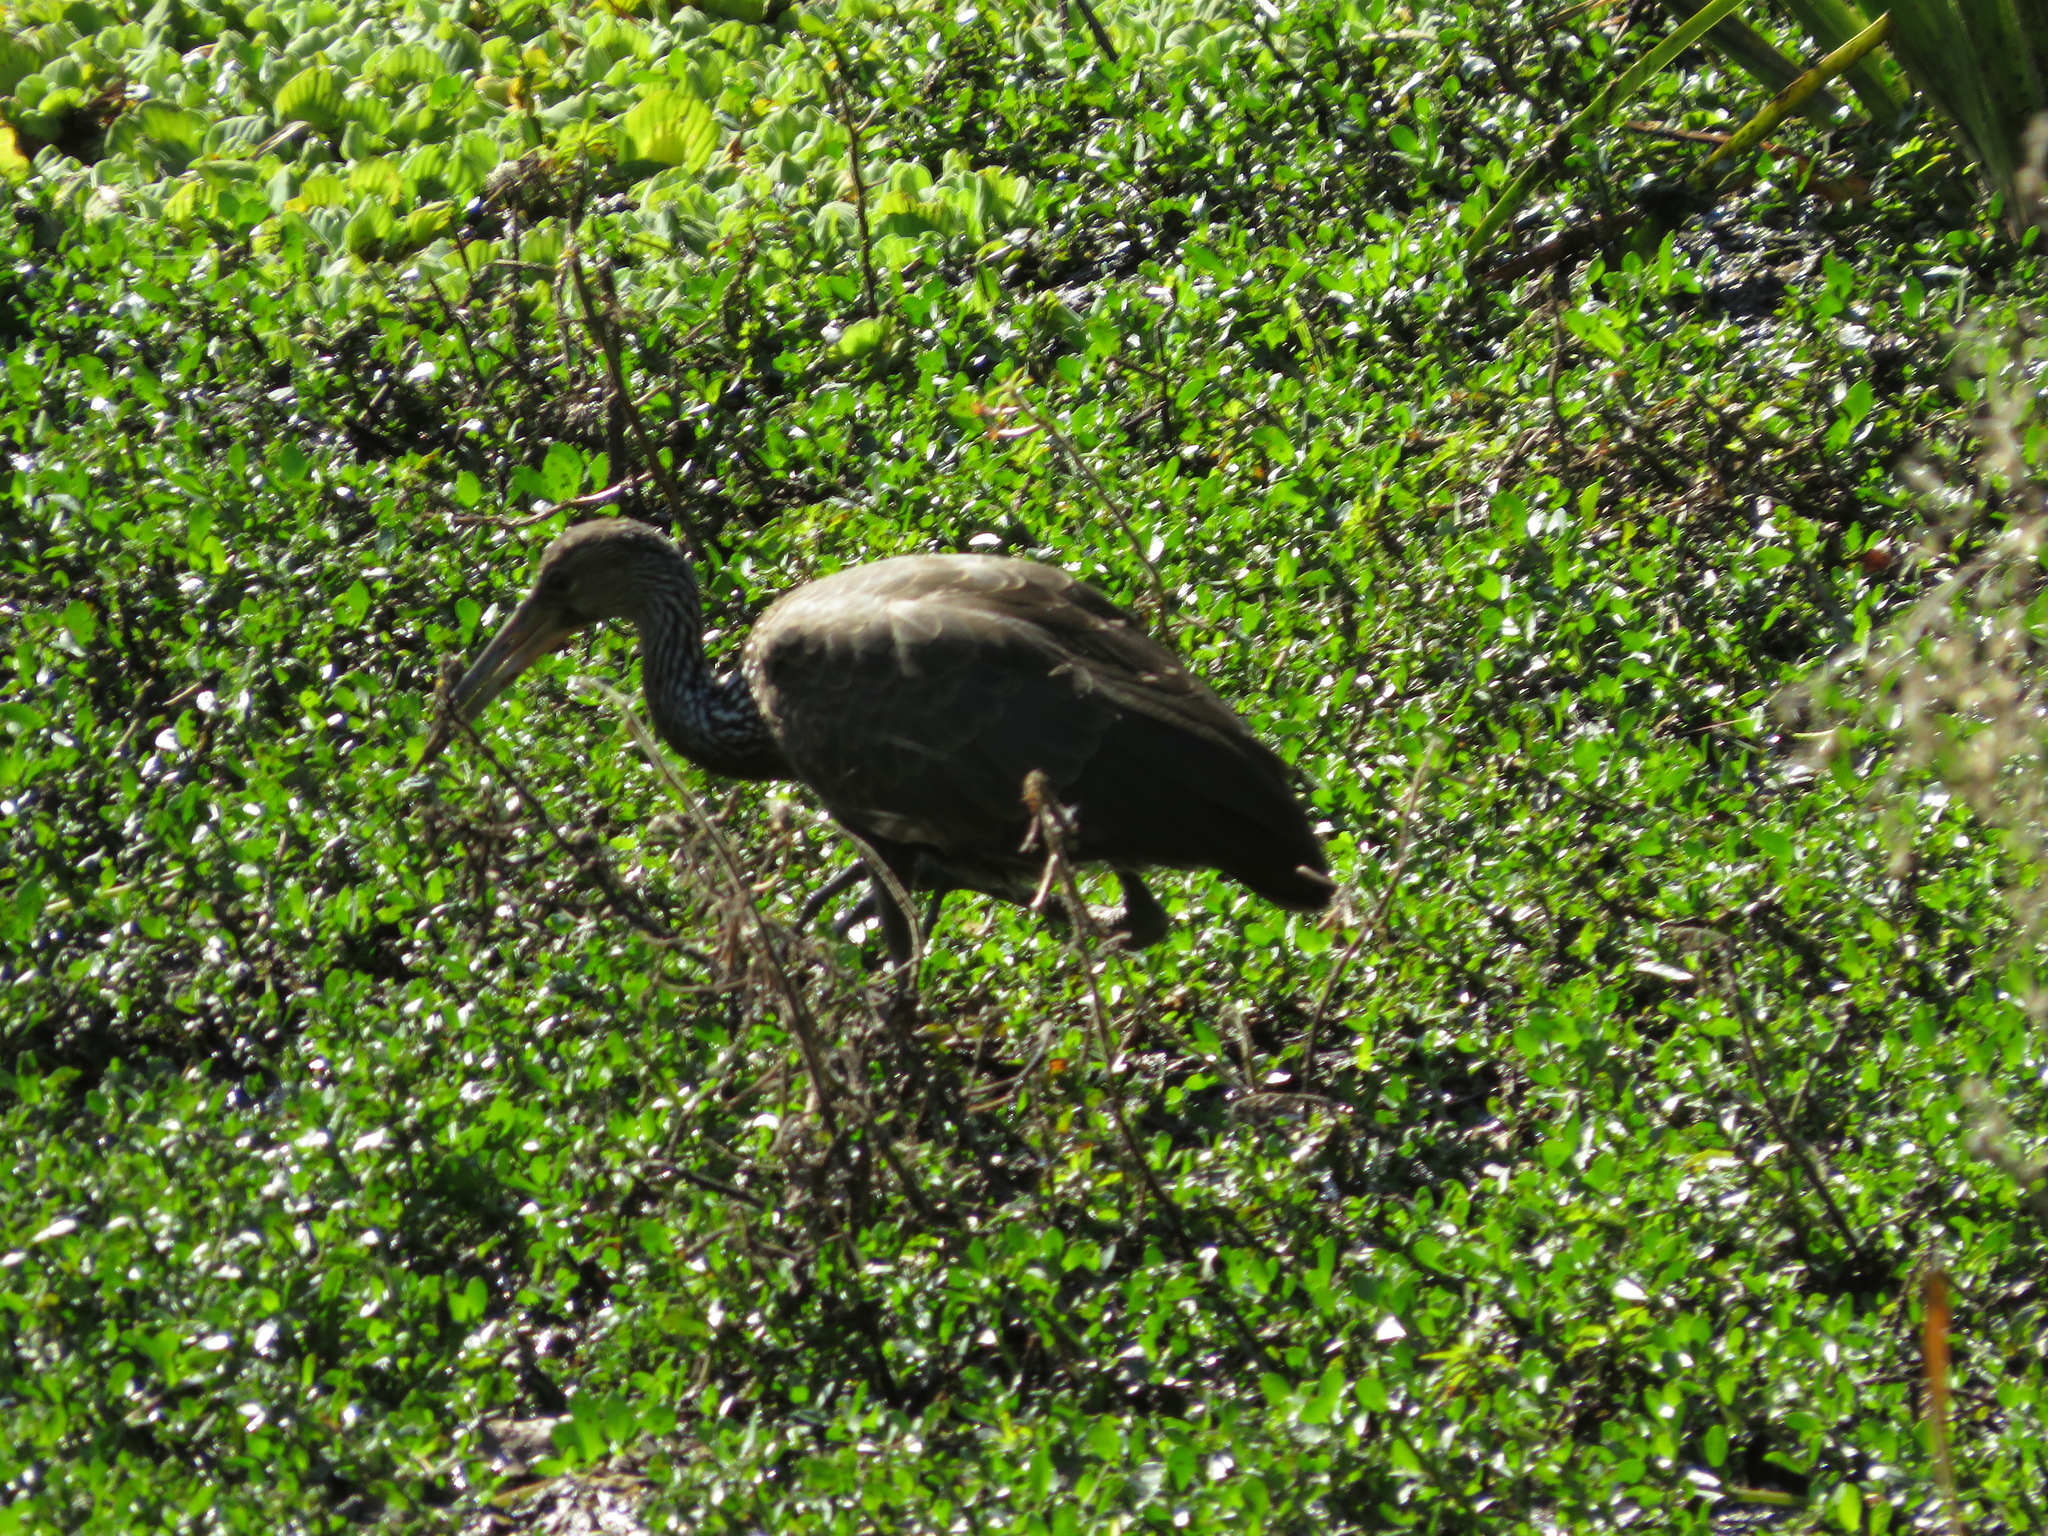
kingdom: Animalia
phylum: Chordata
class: Aves
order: Gruiformes
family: Aramidae
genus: Aramus
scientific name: Aramus guarauna
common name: Limpkin
